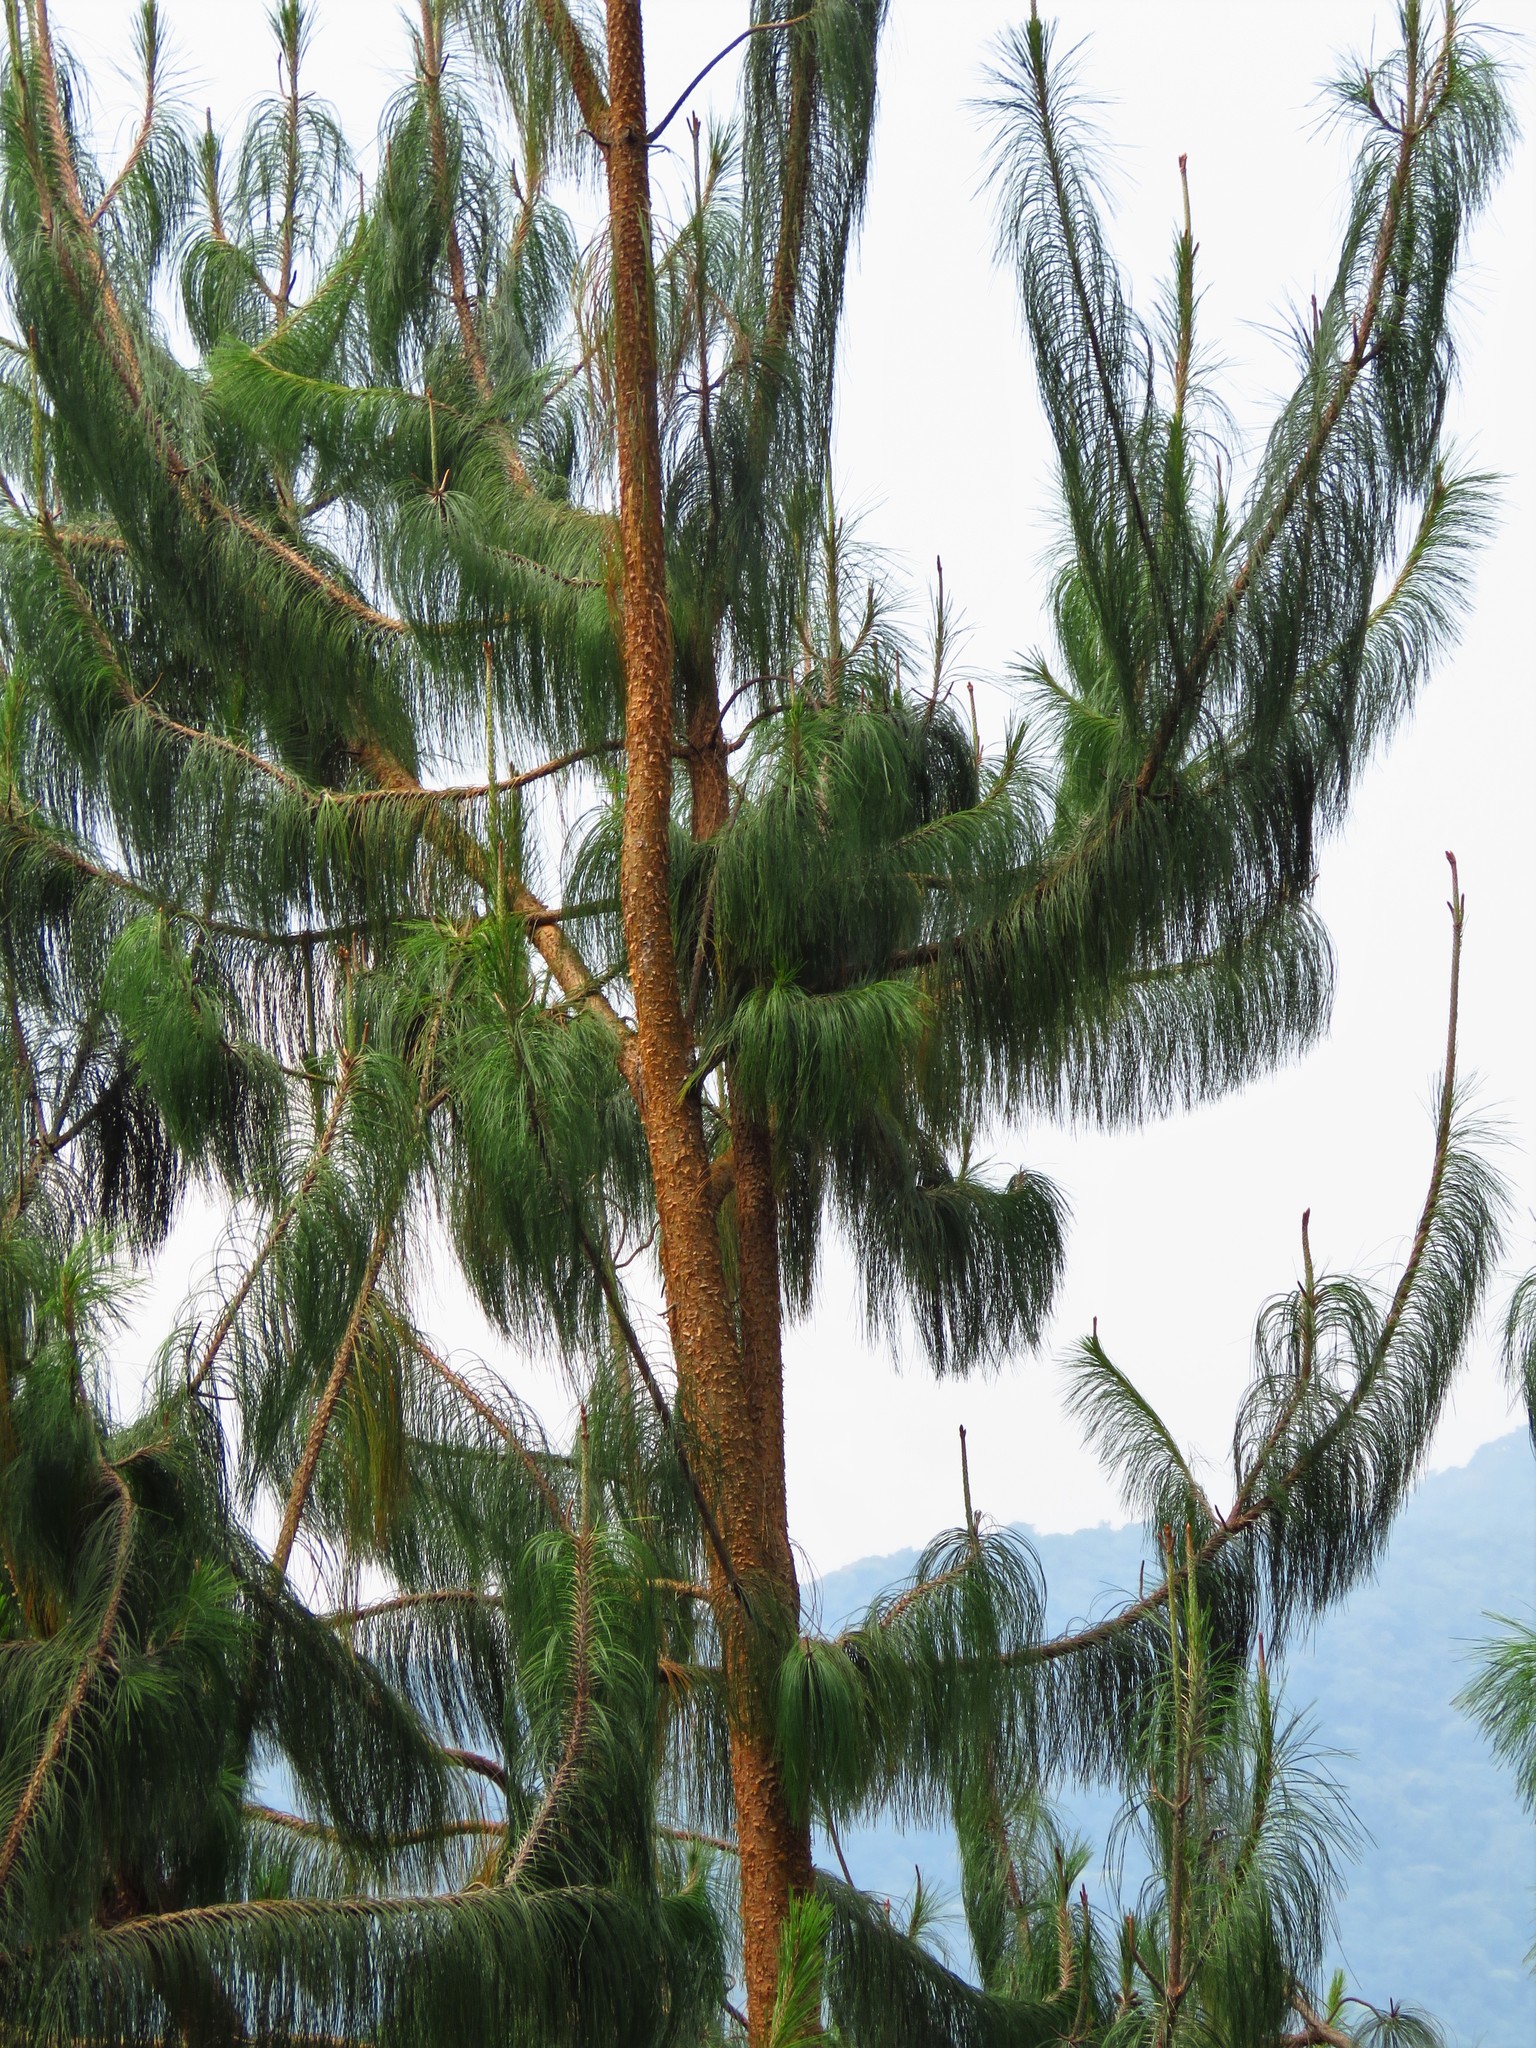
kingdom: Plantae
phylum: Tracheophyta
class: Pinopsida
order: Pinales
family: Pinaceae
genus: Pinus
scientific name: Pinus patula
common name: Mexican weeping pine
